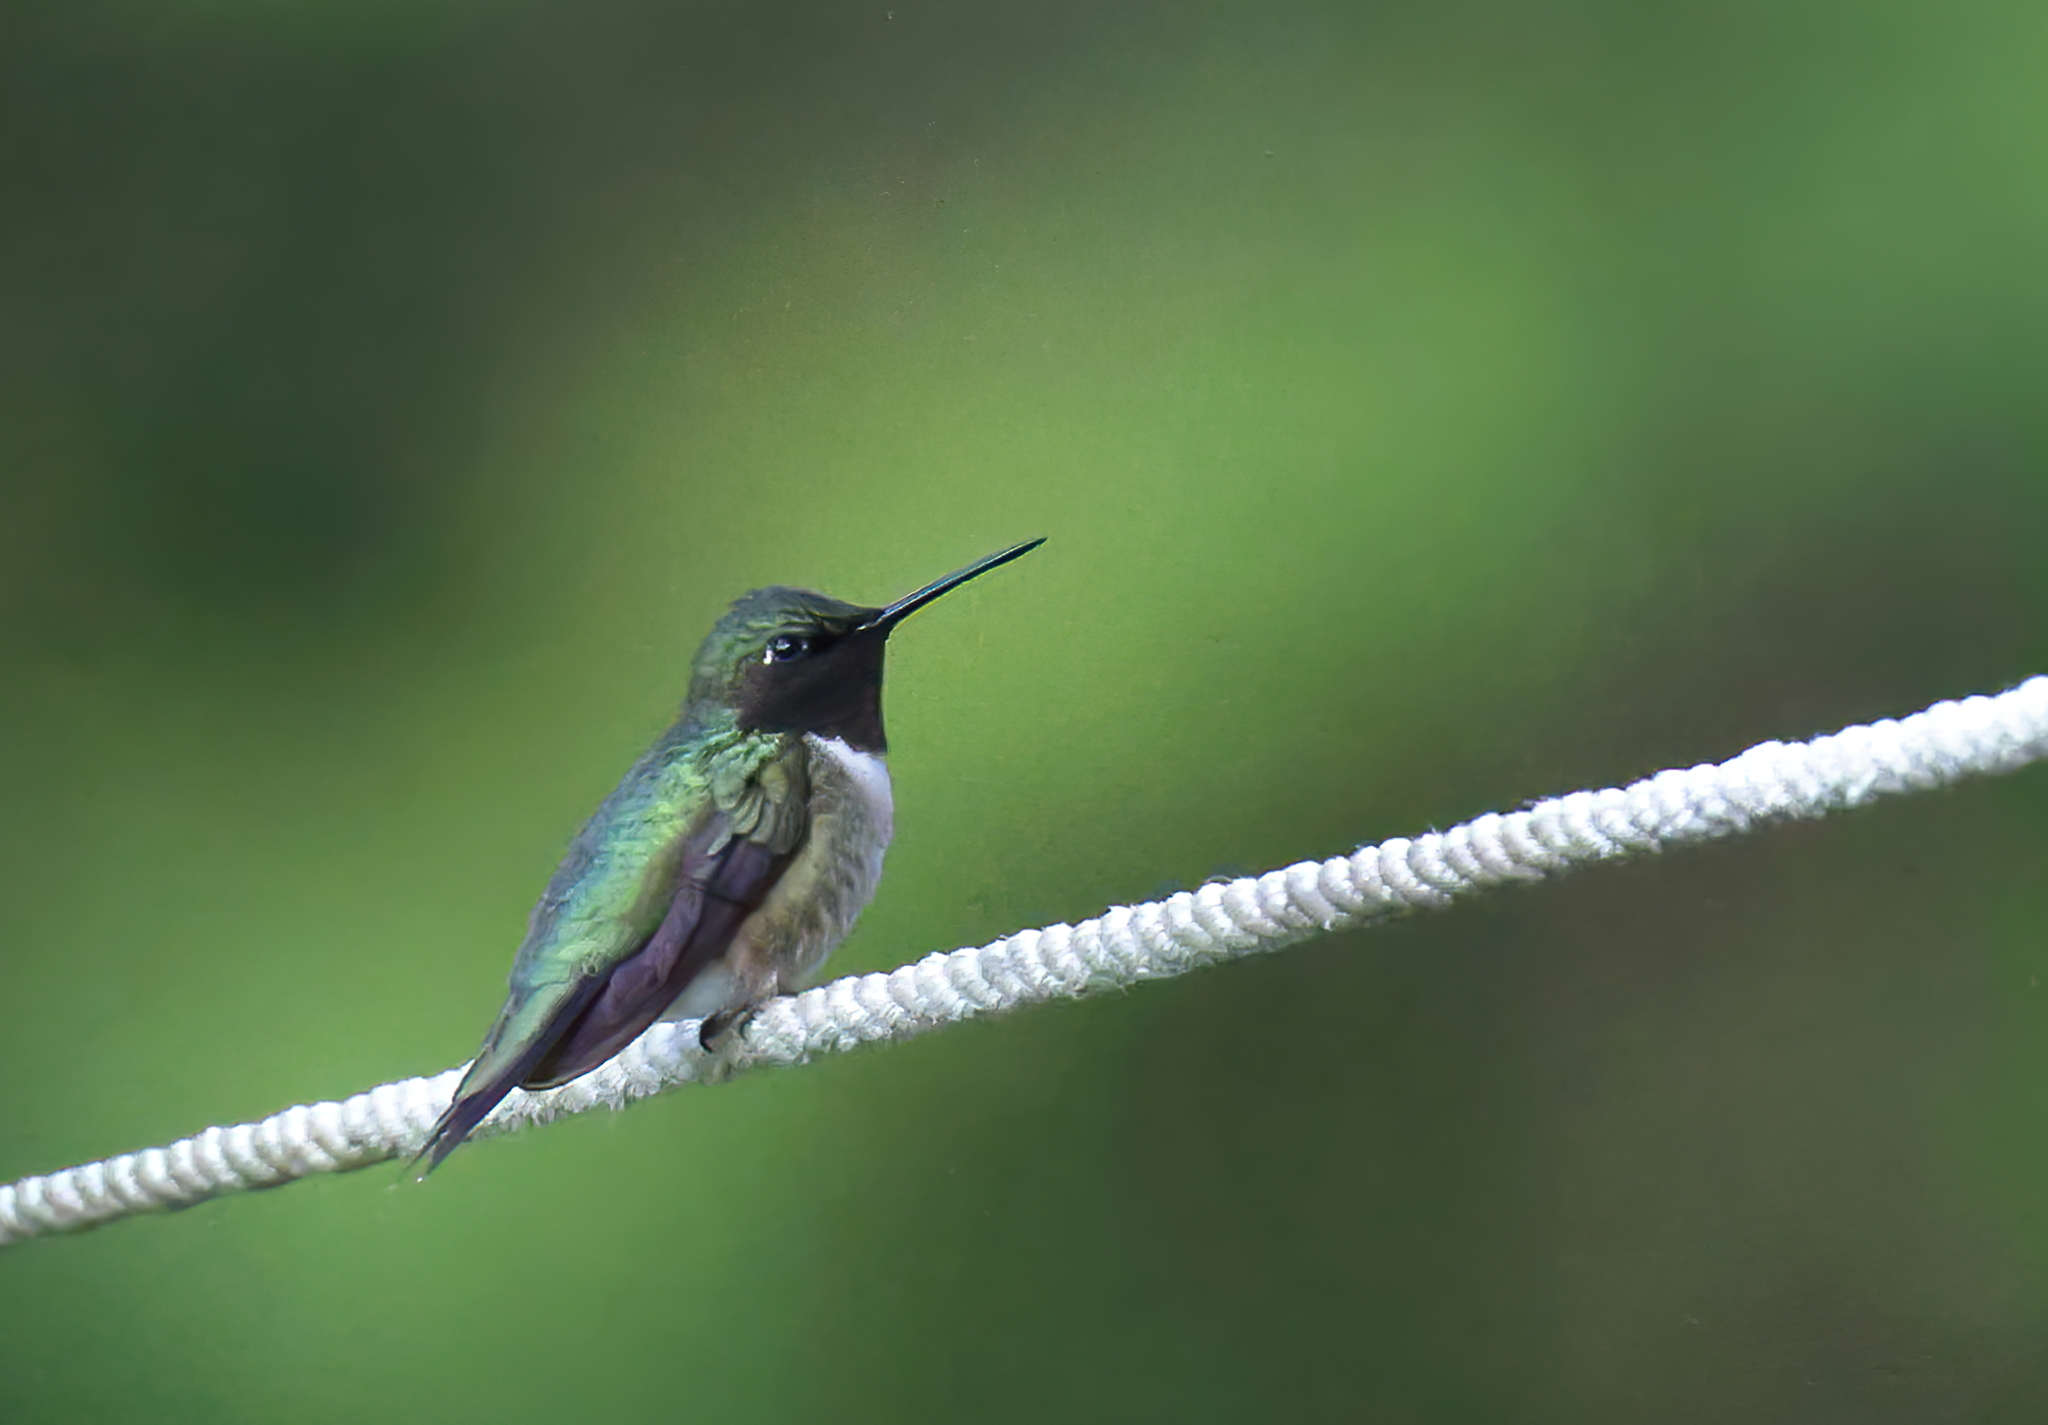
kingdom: Animalia
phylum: Chordata
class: Aves
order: Apodiformes
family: Trochilidae
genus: Archilochus
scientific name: Archilochus colubris
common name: Ruby-throated hummingbird
